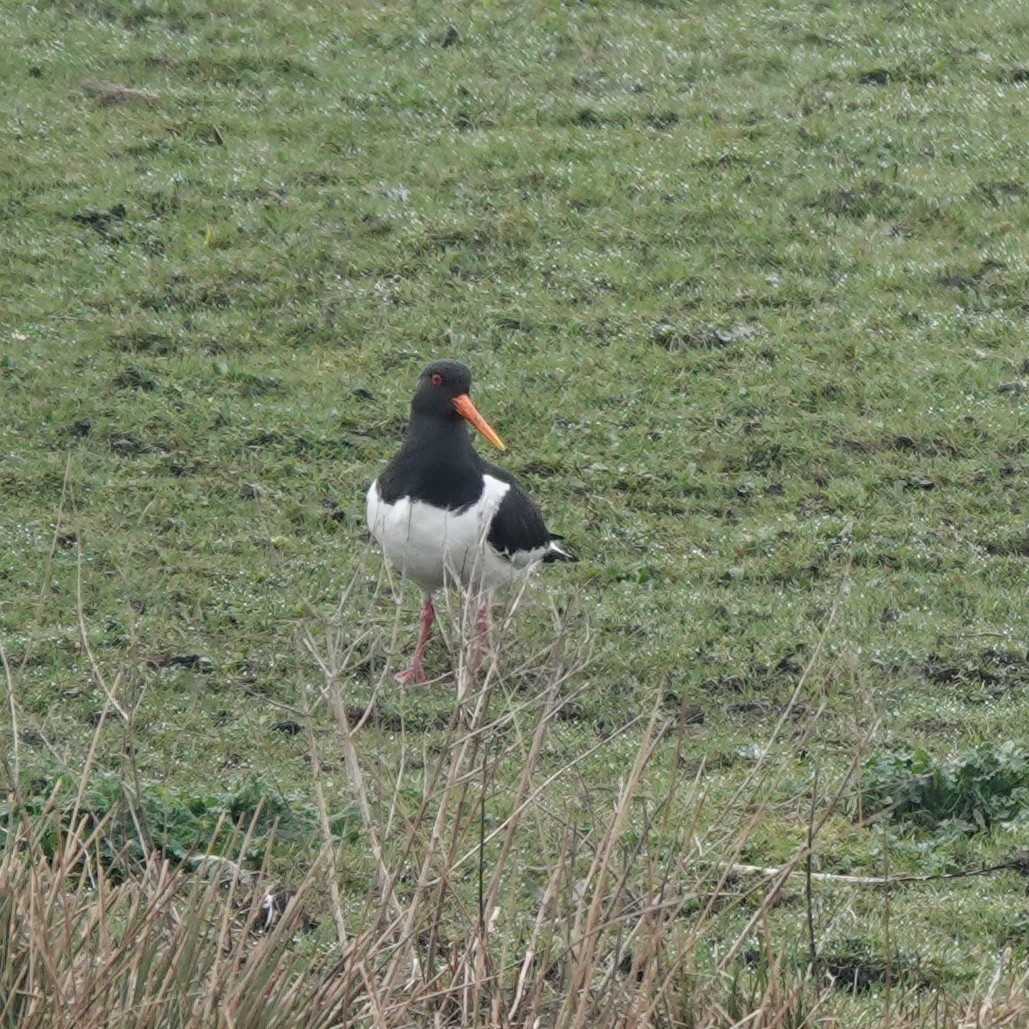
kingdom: Animalia
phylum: Chordata
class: Aves
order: Charadriiformes
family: Haematopodidae
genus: Haematopus
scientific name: Haematopus ostralegus
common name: Eurasian oystercatcher
